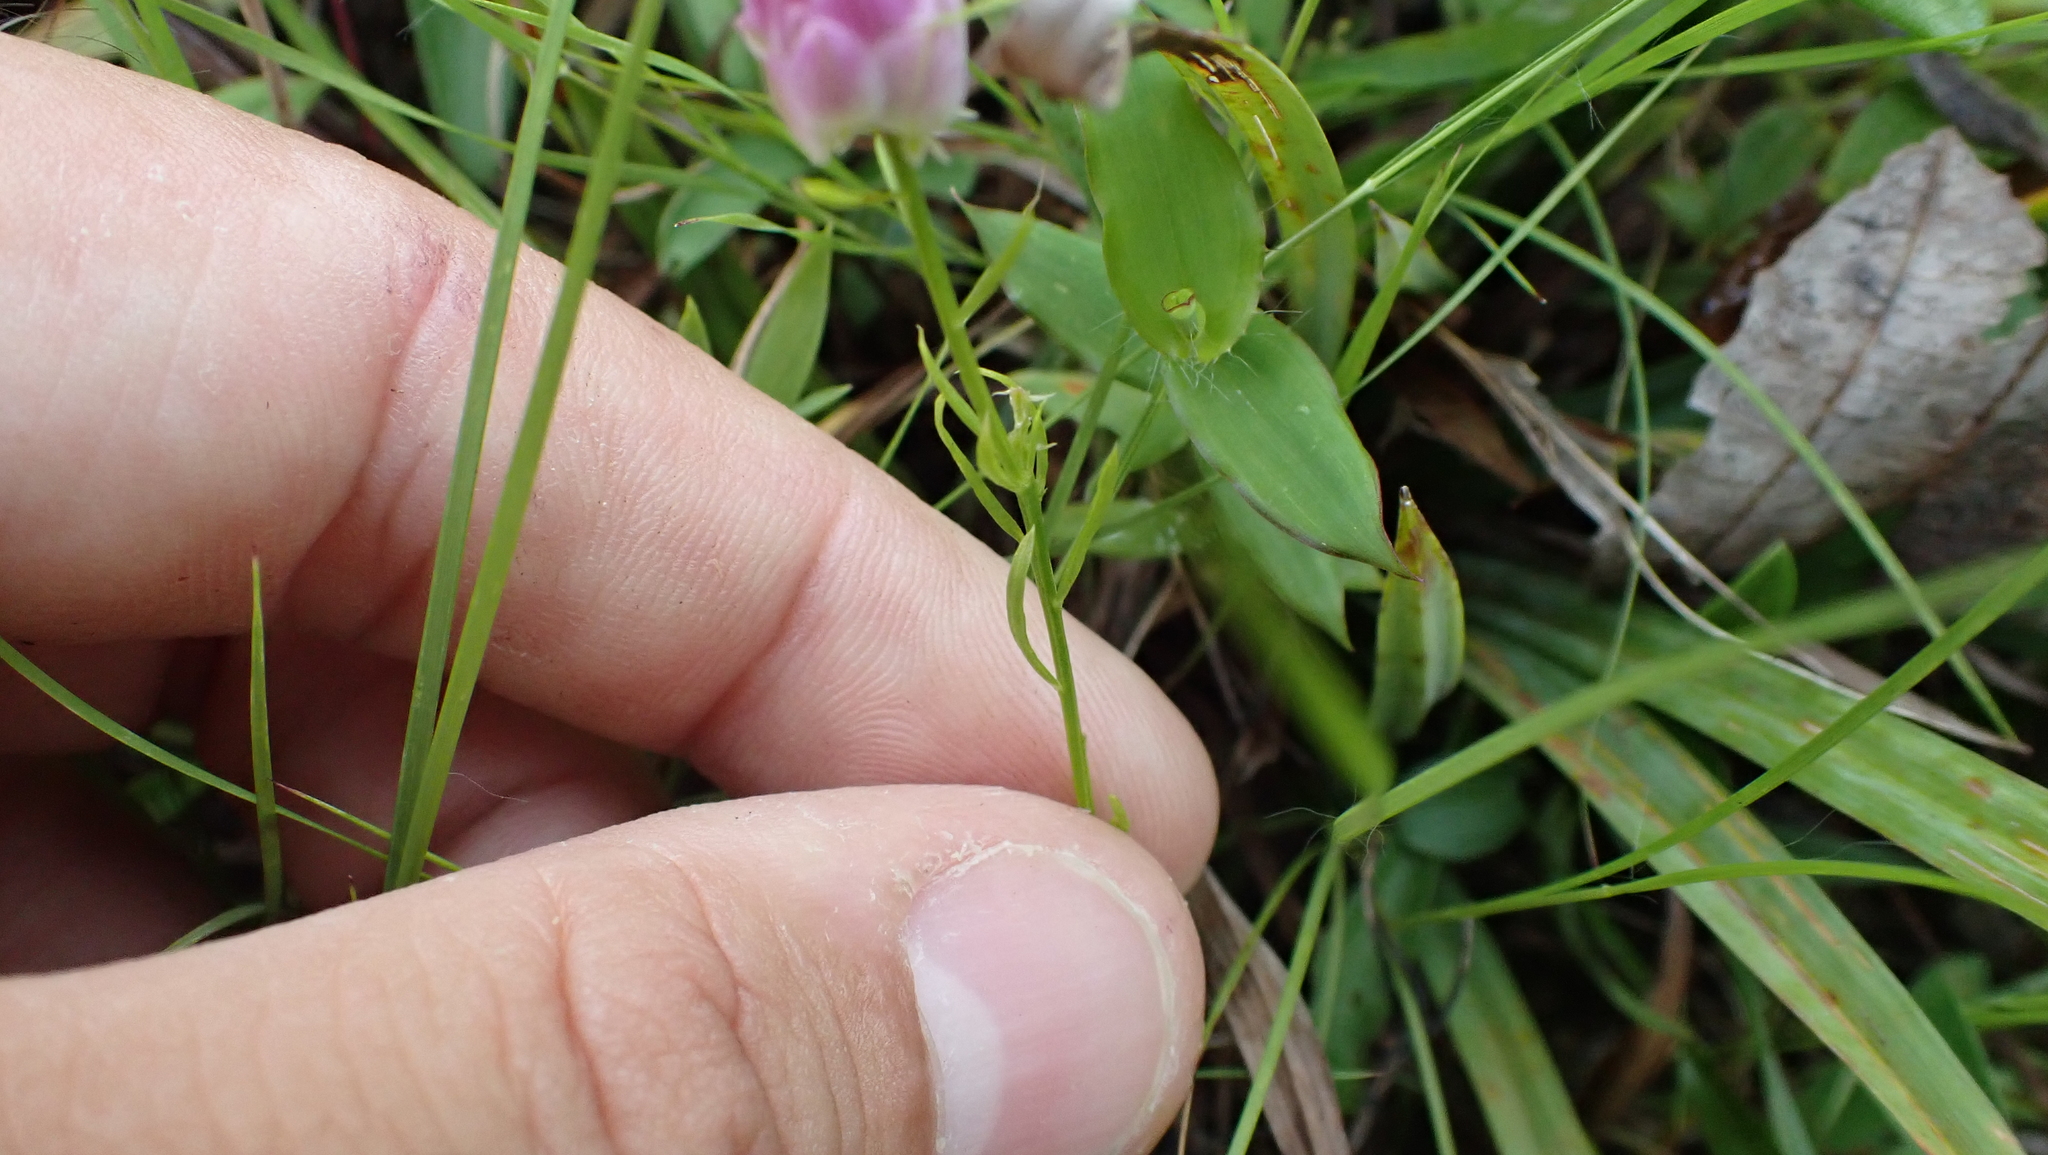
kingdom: Plantae
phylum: Tracheophyta
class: Magnoliopsida
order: Fabales
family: Polygalaceae
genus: Polygala
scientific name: Polygala sanguinea
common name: Blood milkwort
